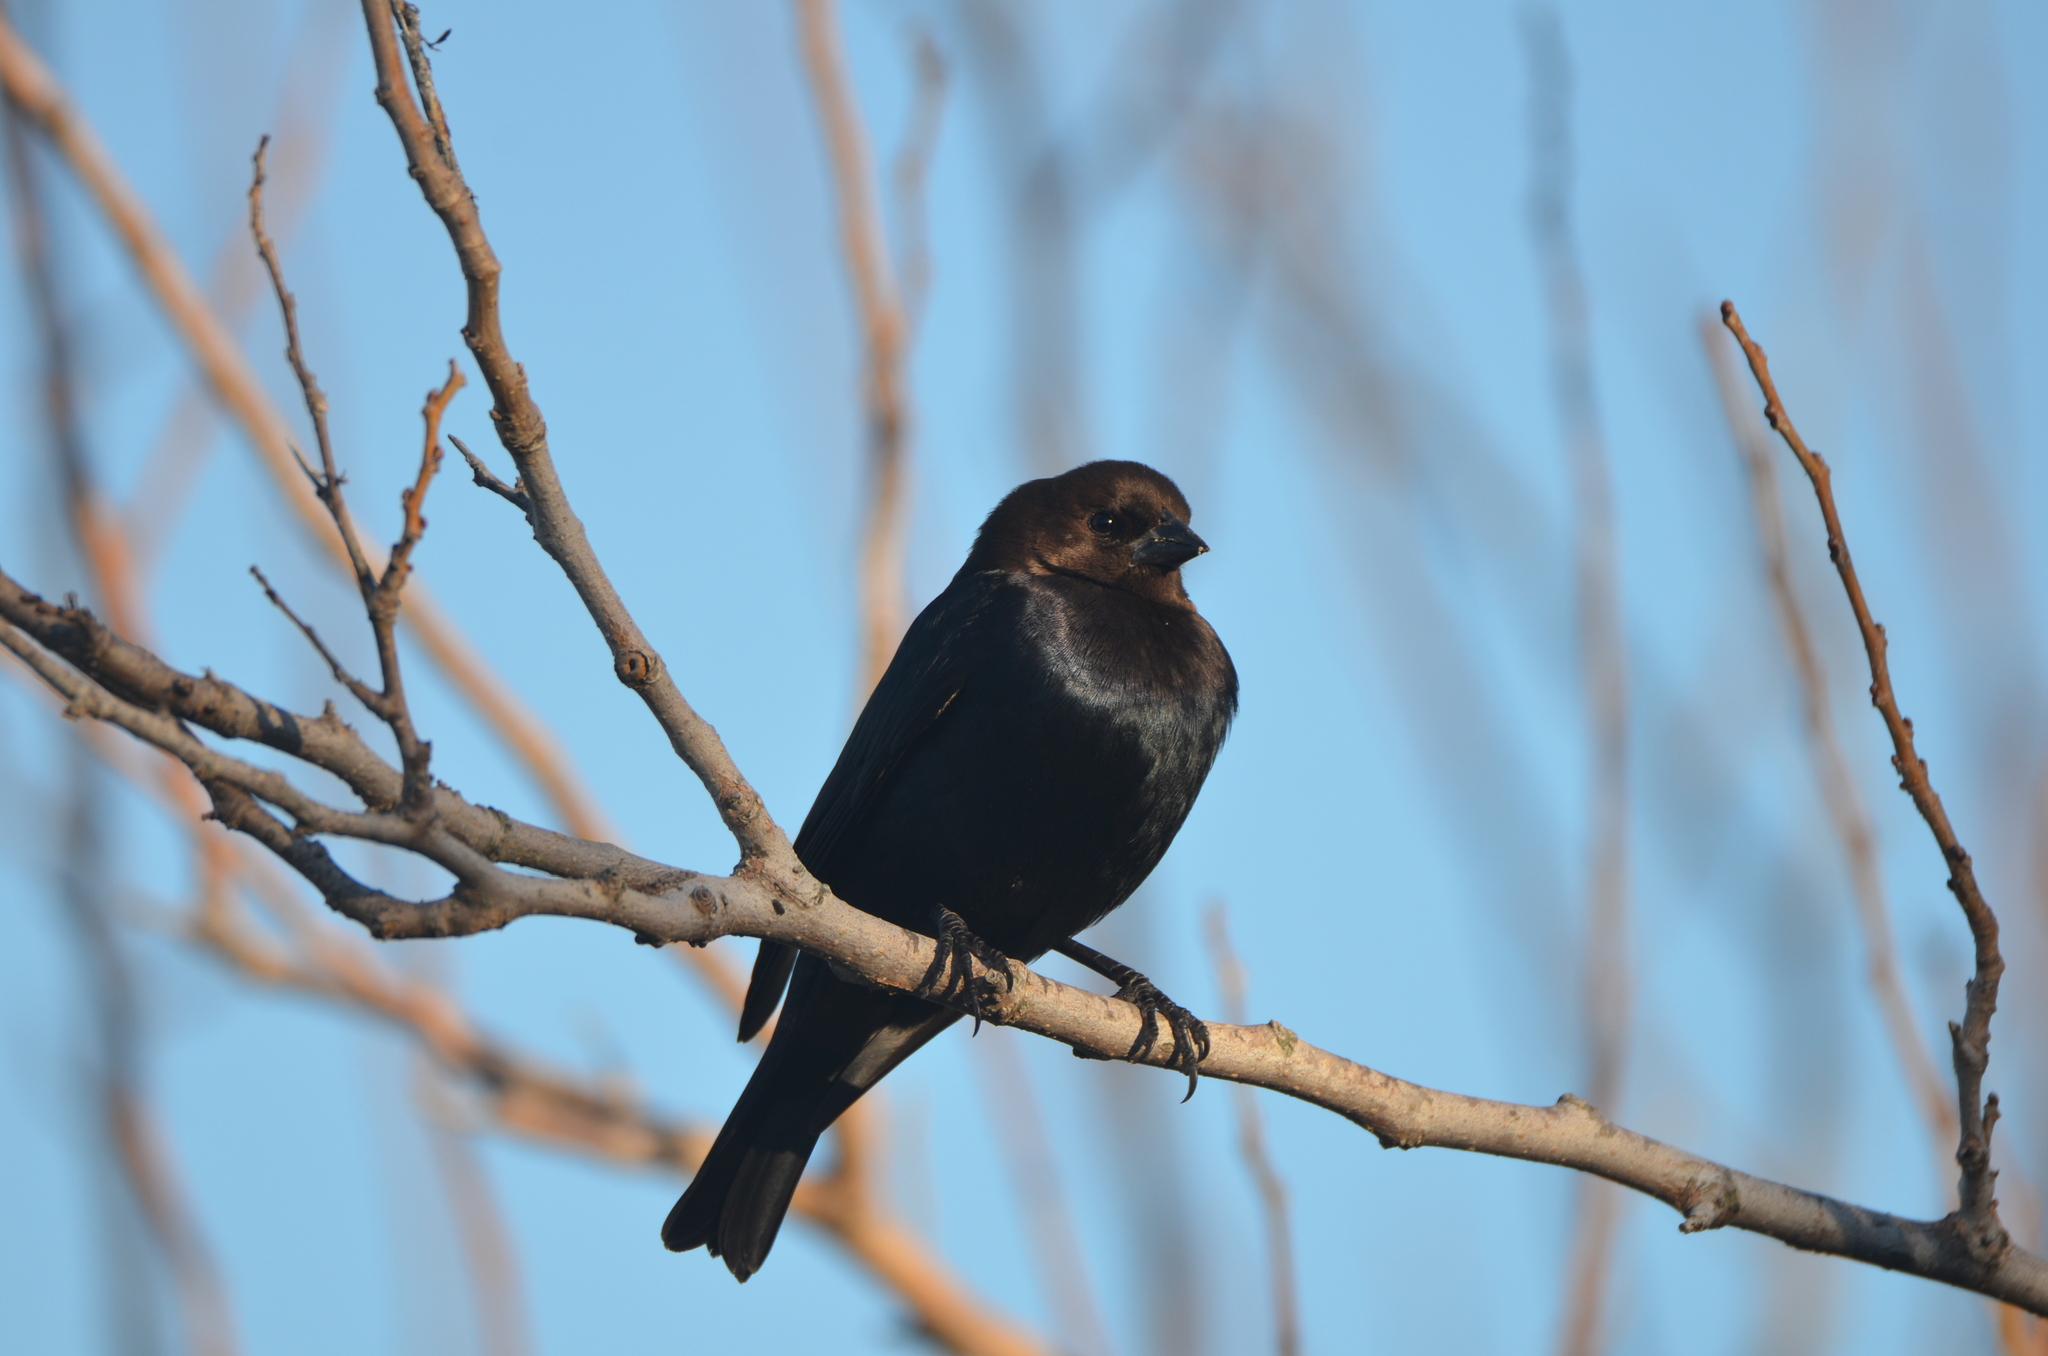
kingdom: Animalia
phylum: Chordata
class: Aves
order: Passeriformes
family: Icteridae
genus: Molothrus
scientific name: Molothrus ater
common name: Brown-headed cowbird
